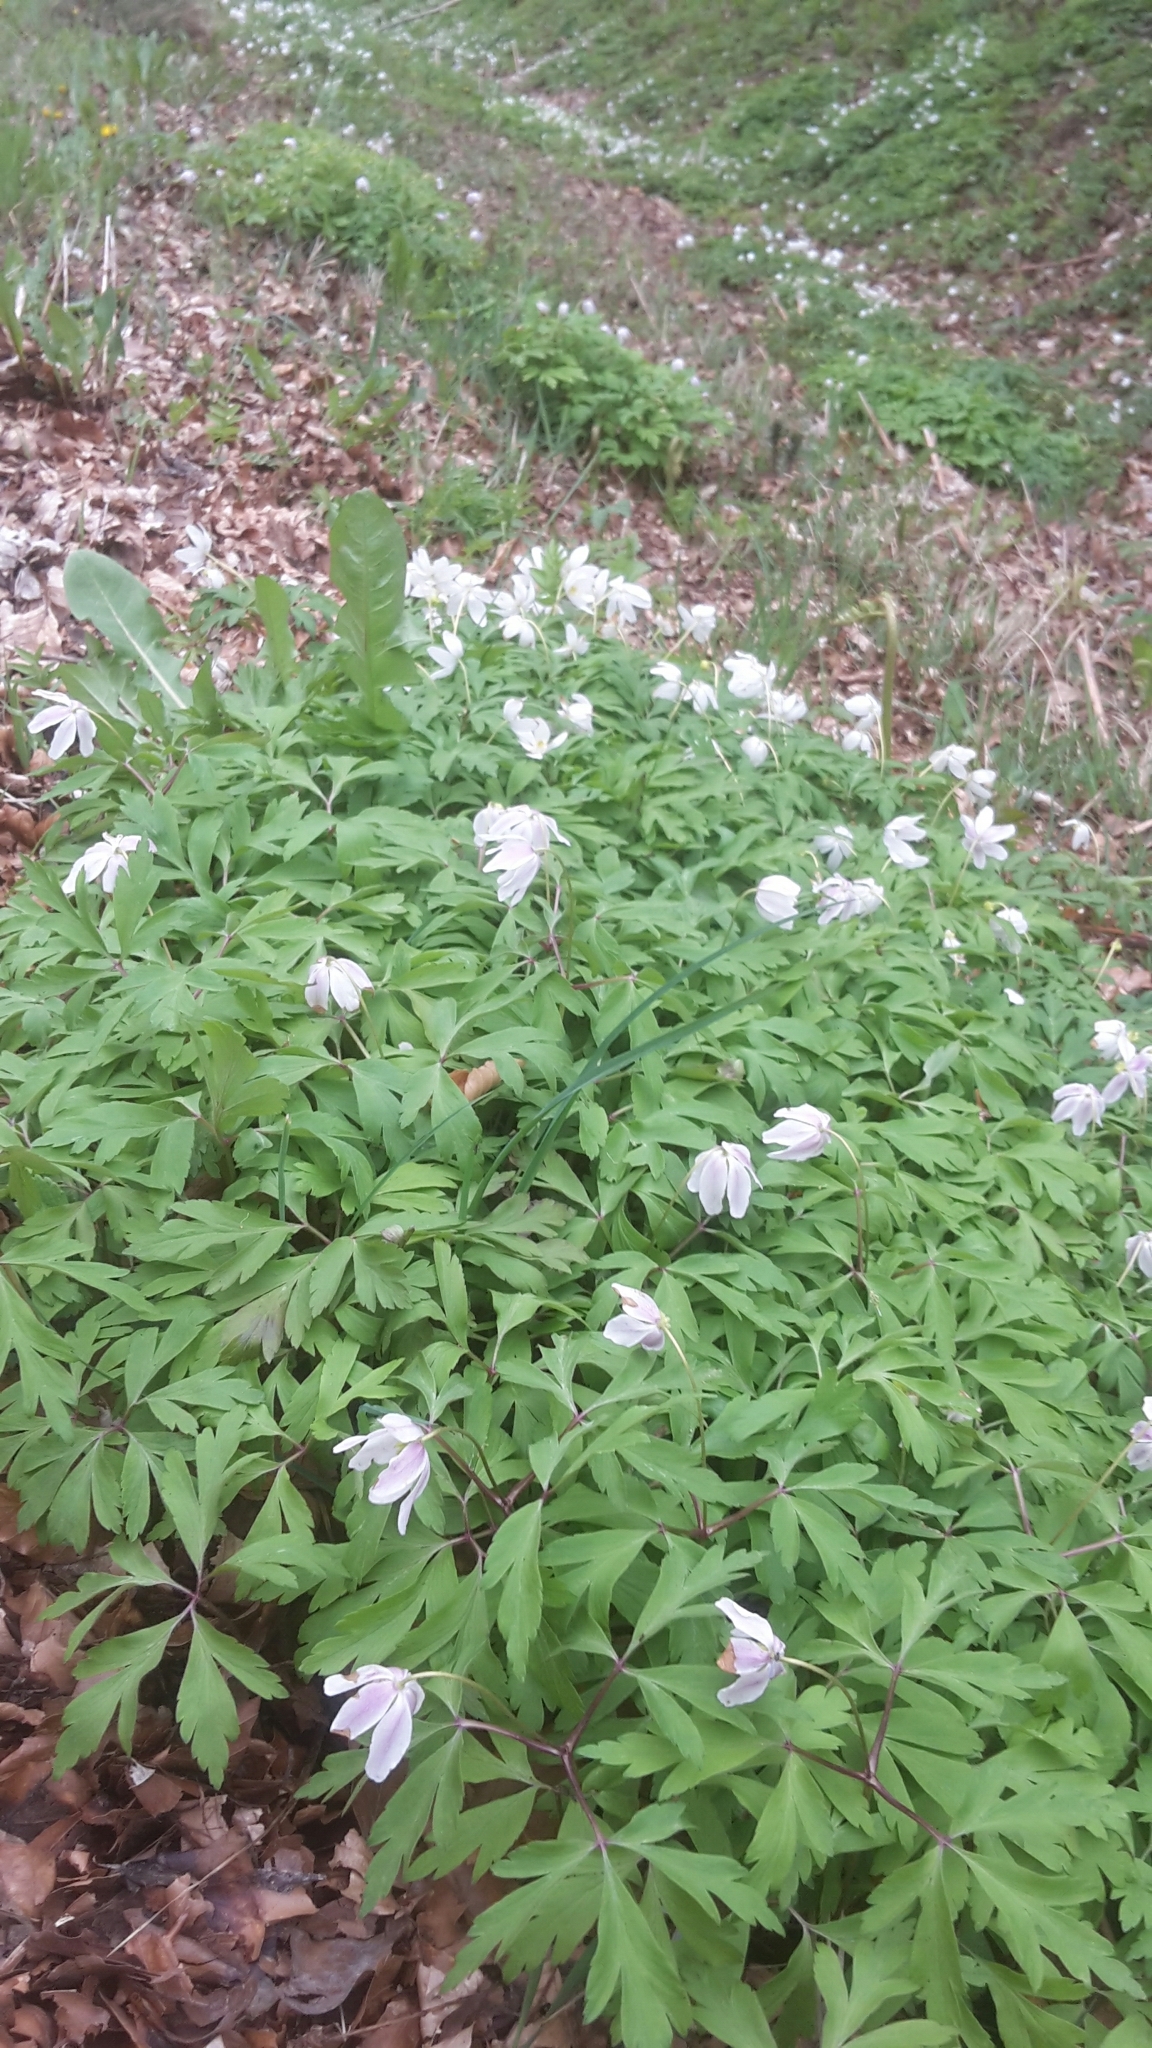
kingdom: Plantae
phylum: Tracheophyta
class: Magnoliopsida
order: Ranunculales
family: Ranunculaceae
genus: Anemone
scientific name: Anemone nemorosa
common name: Wood anemone
